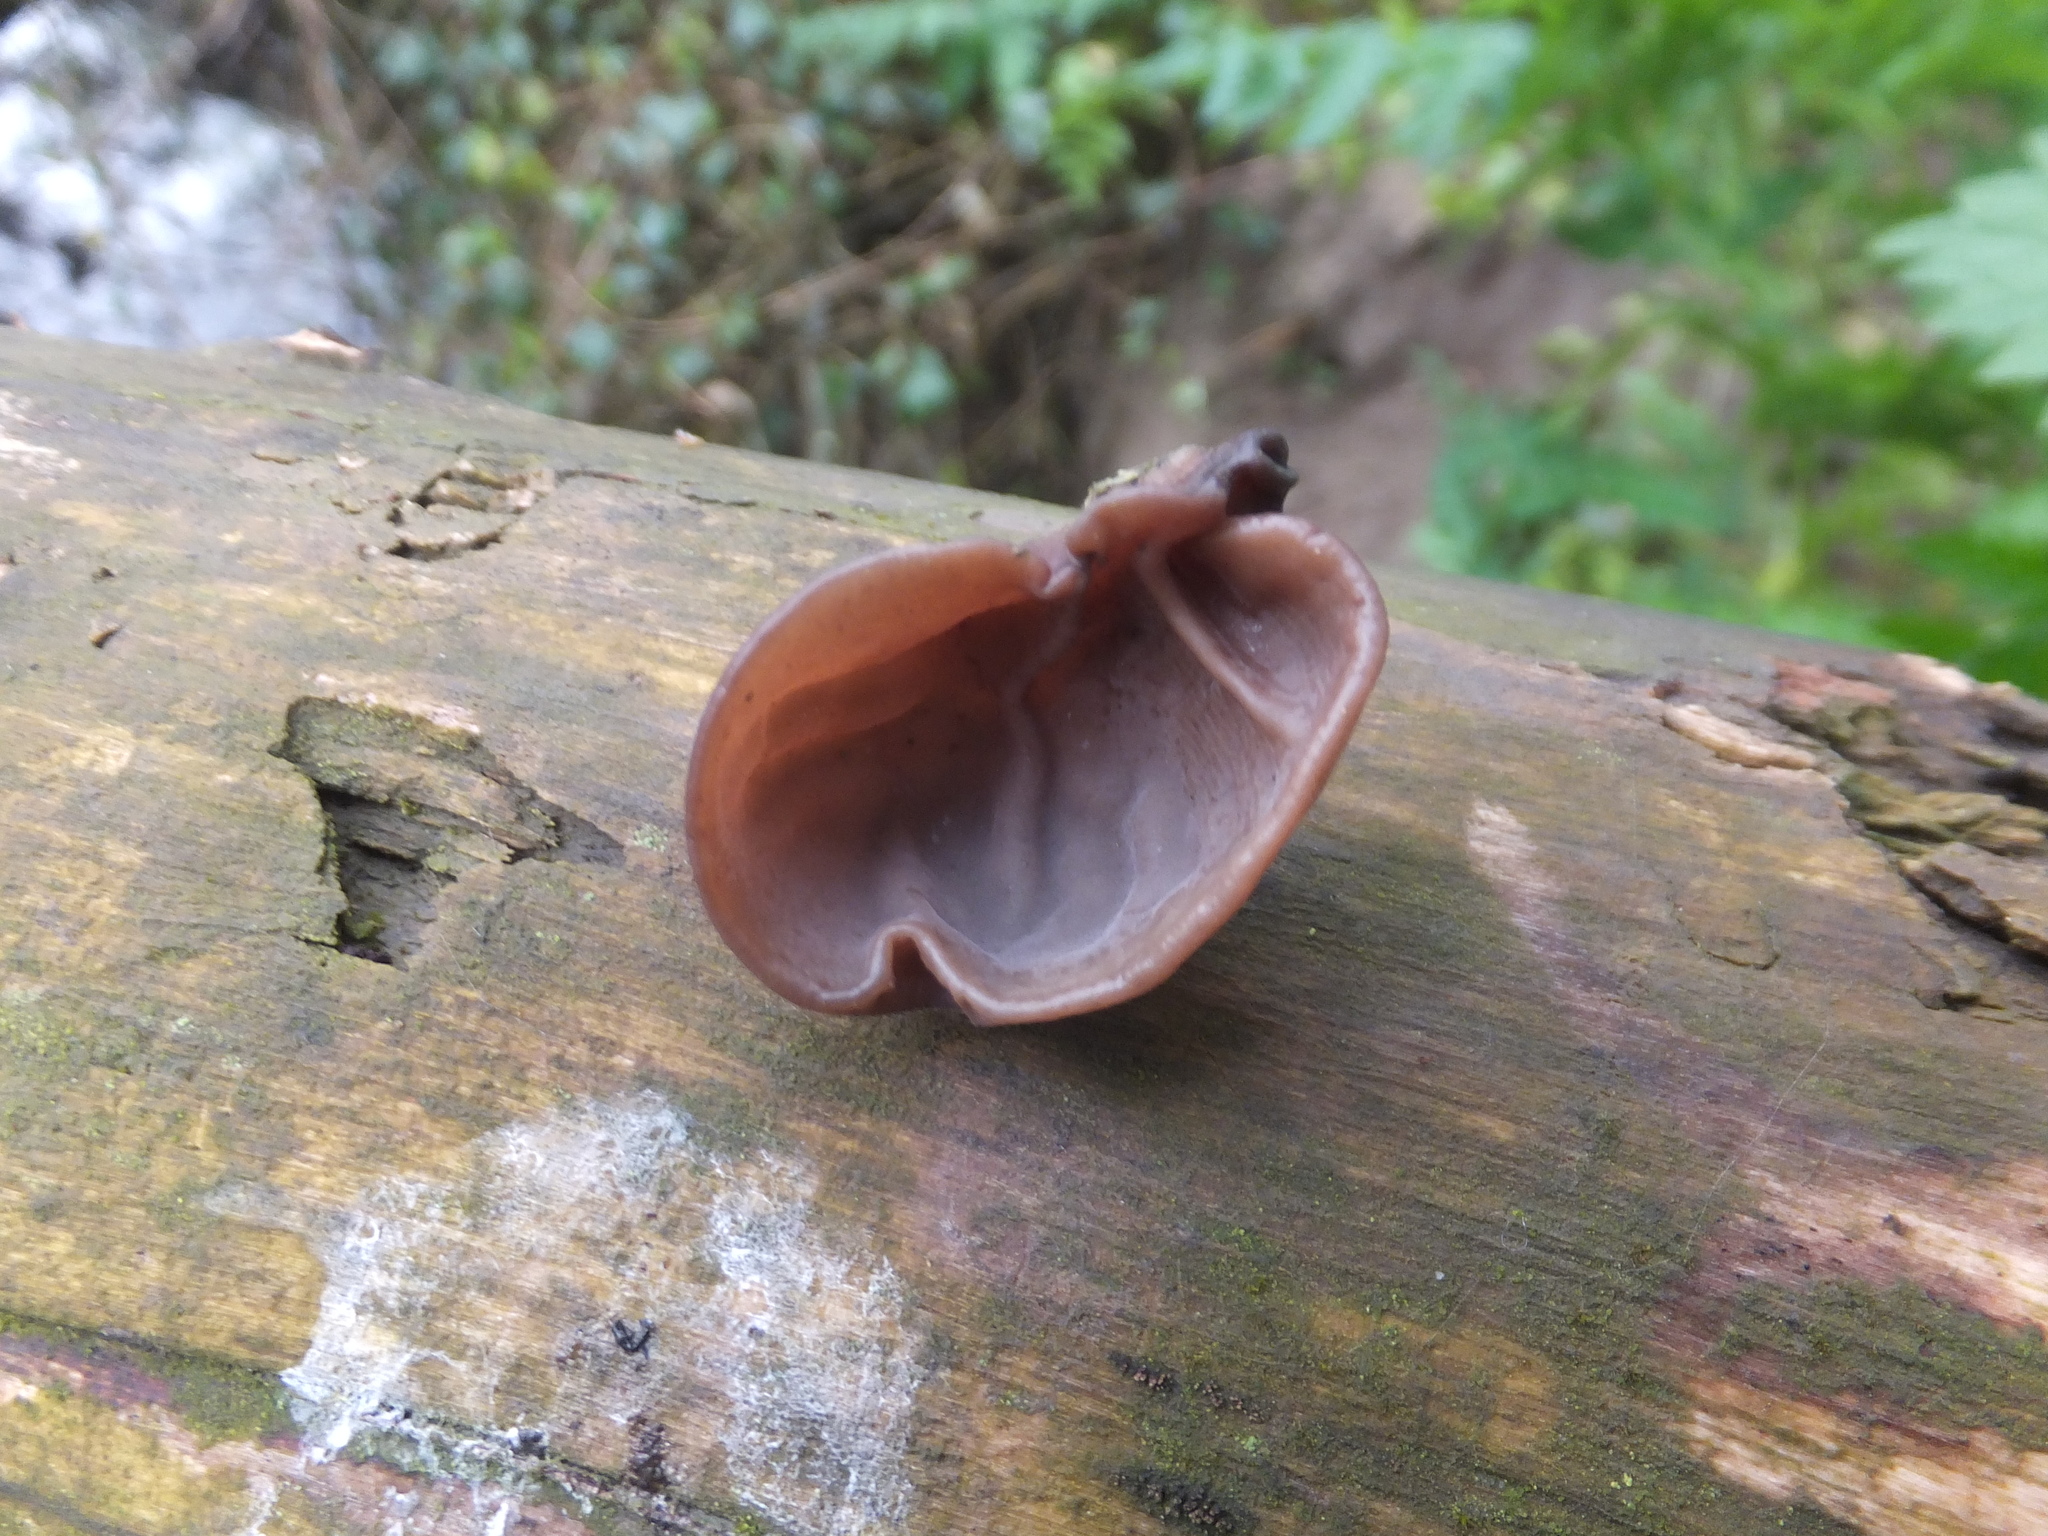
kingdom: Fungi
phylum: Basidiomycota
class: Agaricomycetes
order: Auriculariales
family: Auriculariaceae
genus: Auricularia
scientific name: Auricularia auricula-judae
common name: Jelly ear
